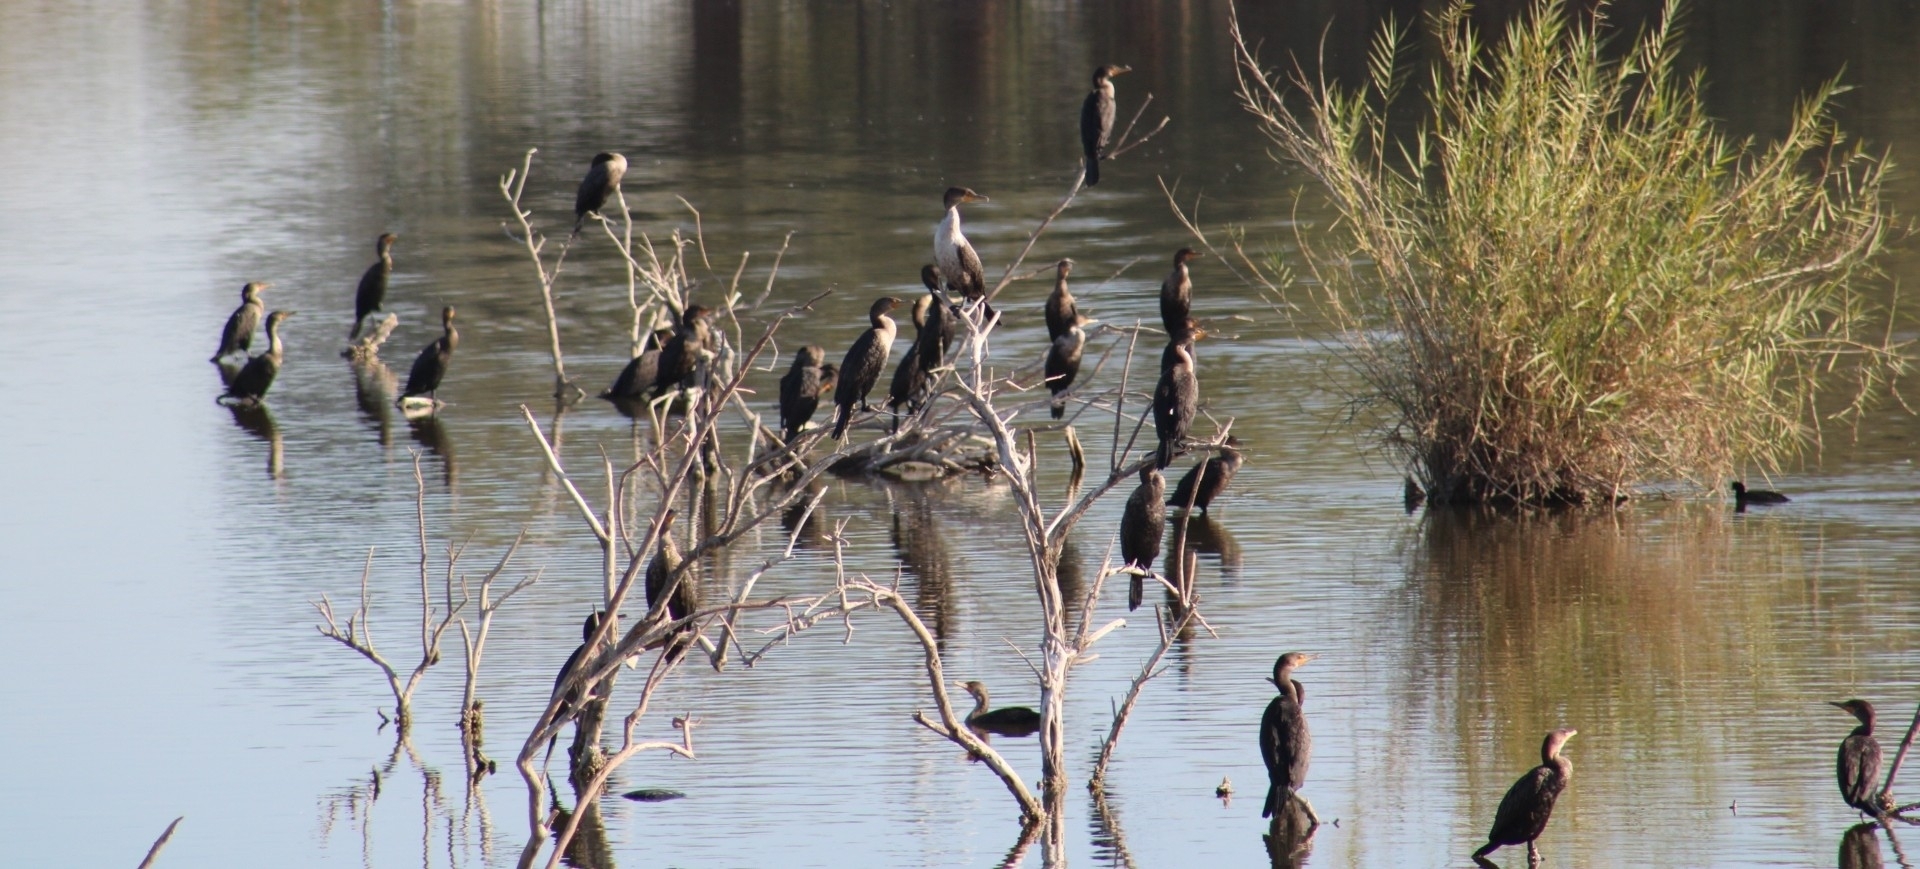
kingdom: Animalia
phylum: Chordata
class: Aves
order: Suliformes
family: Phalacrocoracidae
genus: Phalacrocorax
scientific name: Phalacrocorax auritus
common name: Double-crested cormorant
